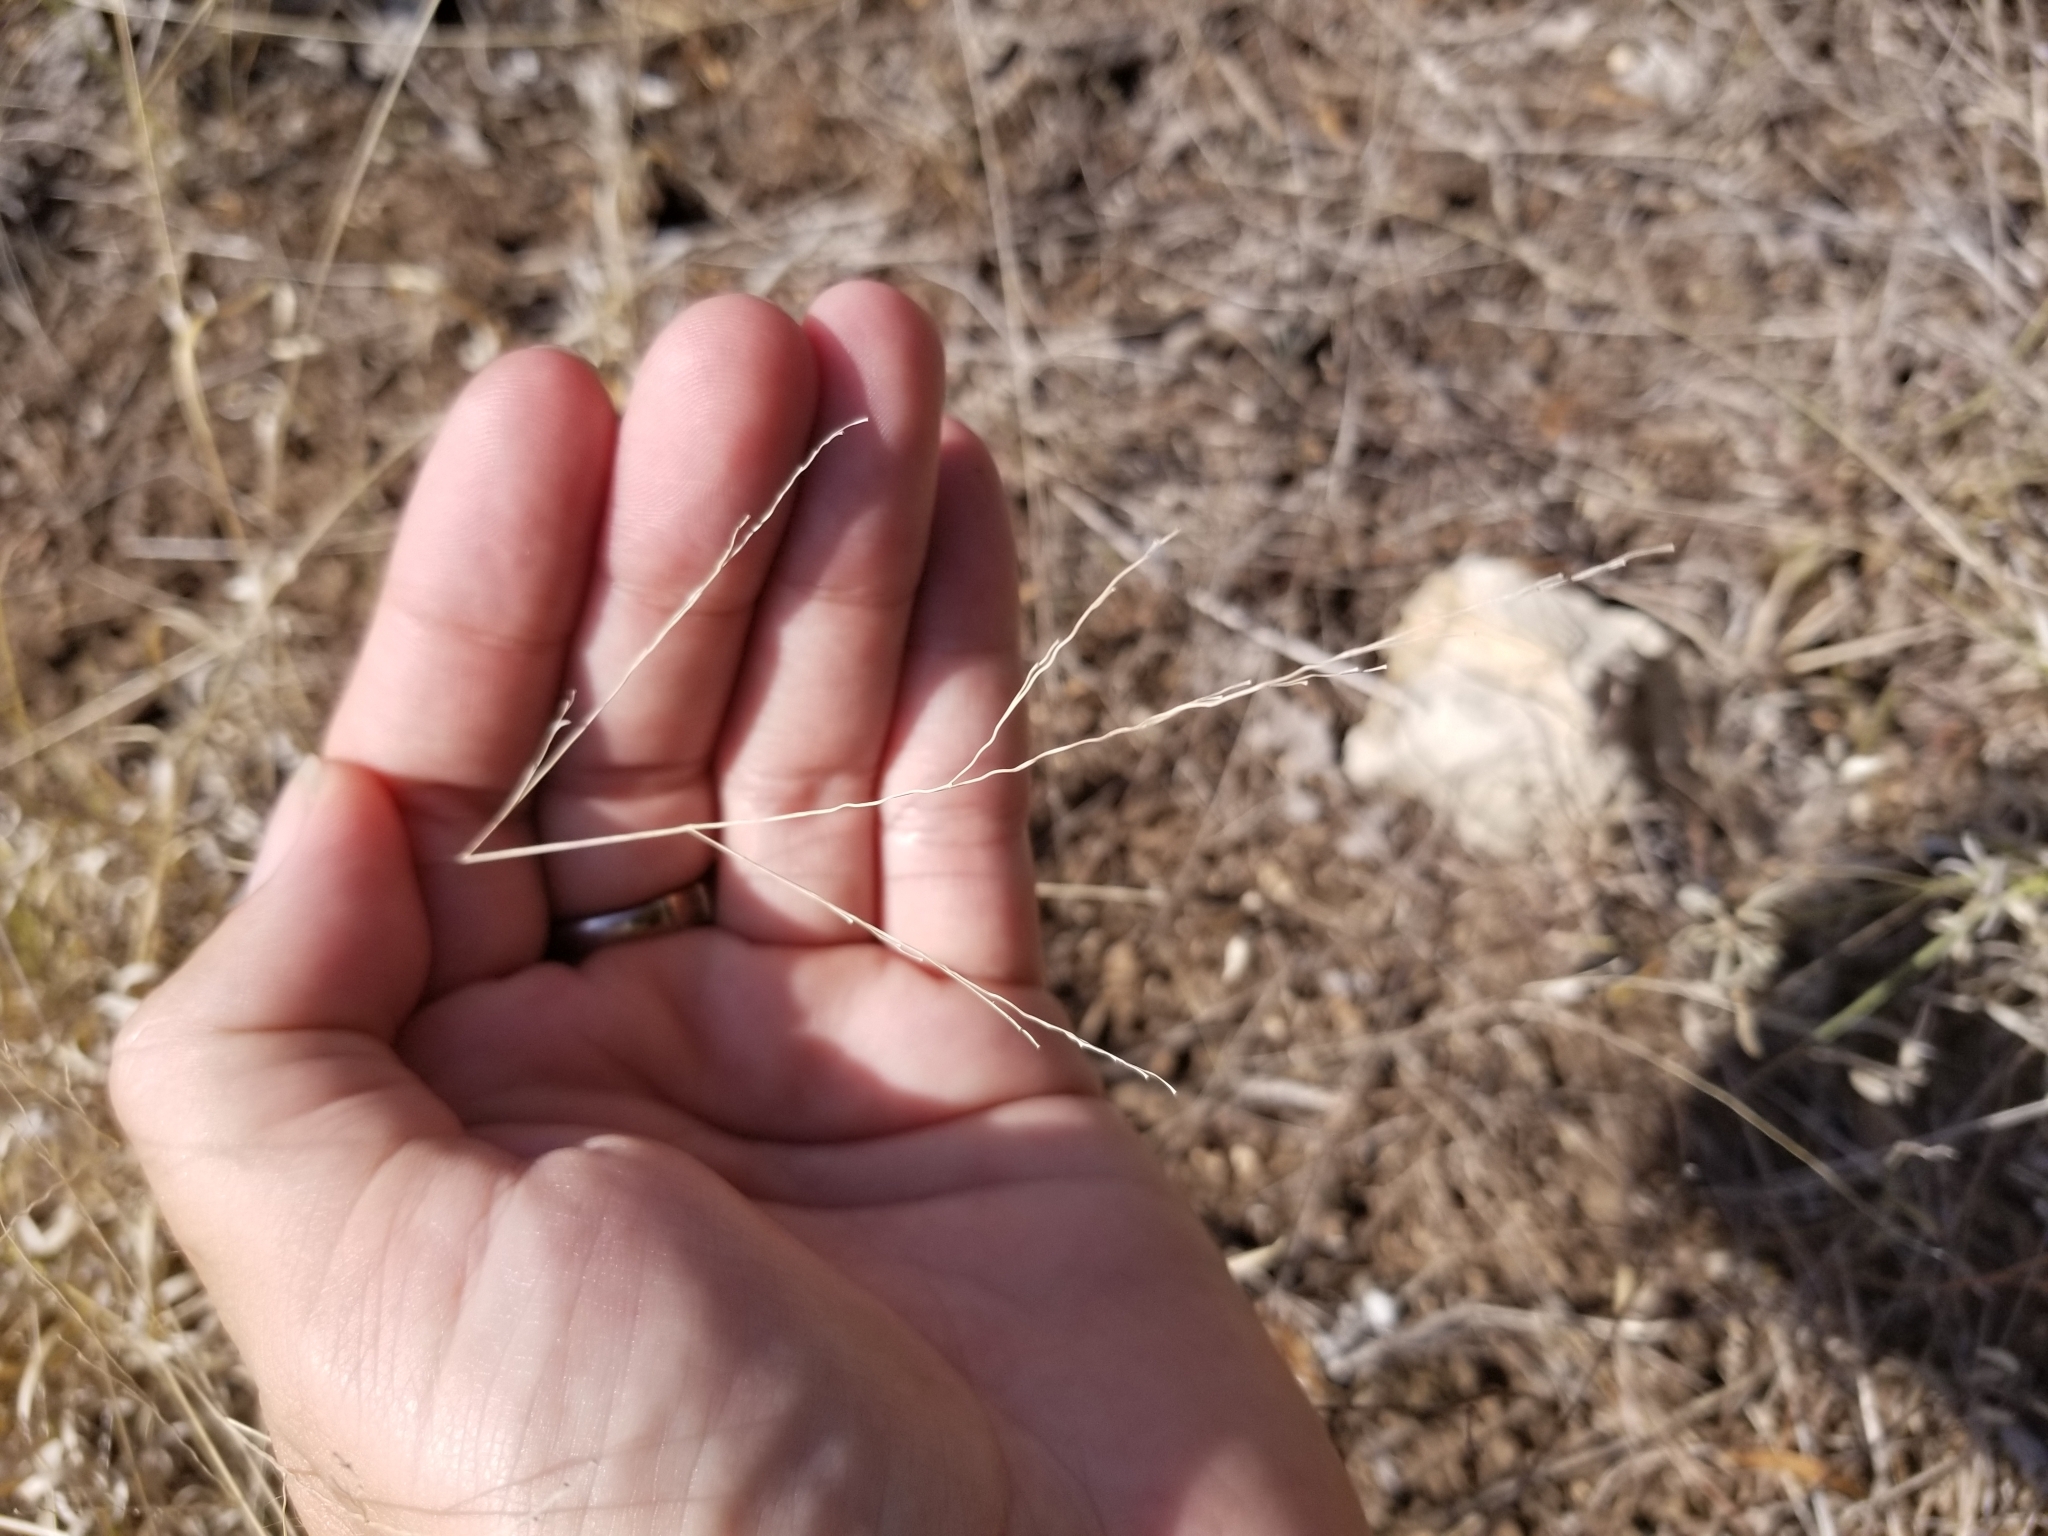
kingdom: Plantae
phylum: Tracheophyta
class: Liliopsida
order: Poales
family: Poaceae
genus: Panicum
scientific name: Panicum hallii
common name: Hall's witchgrass
